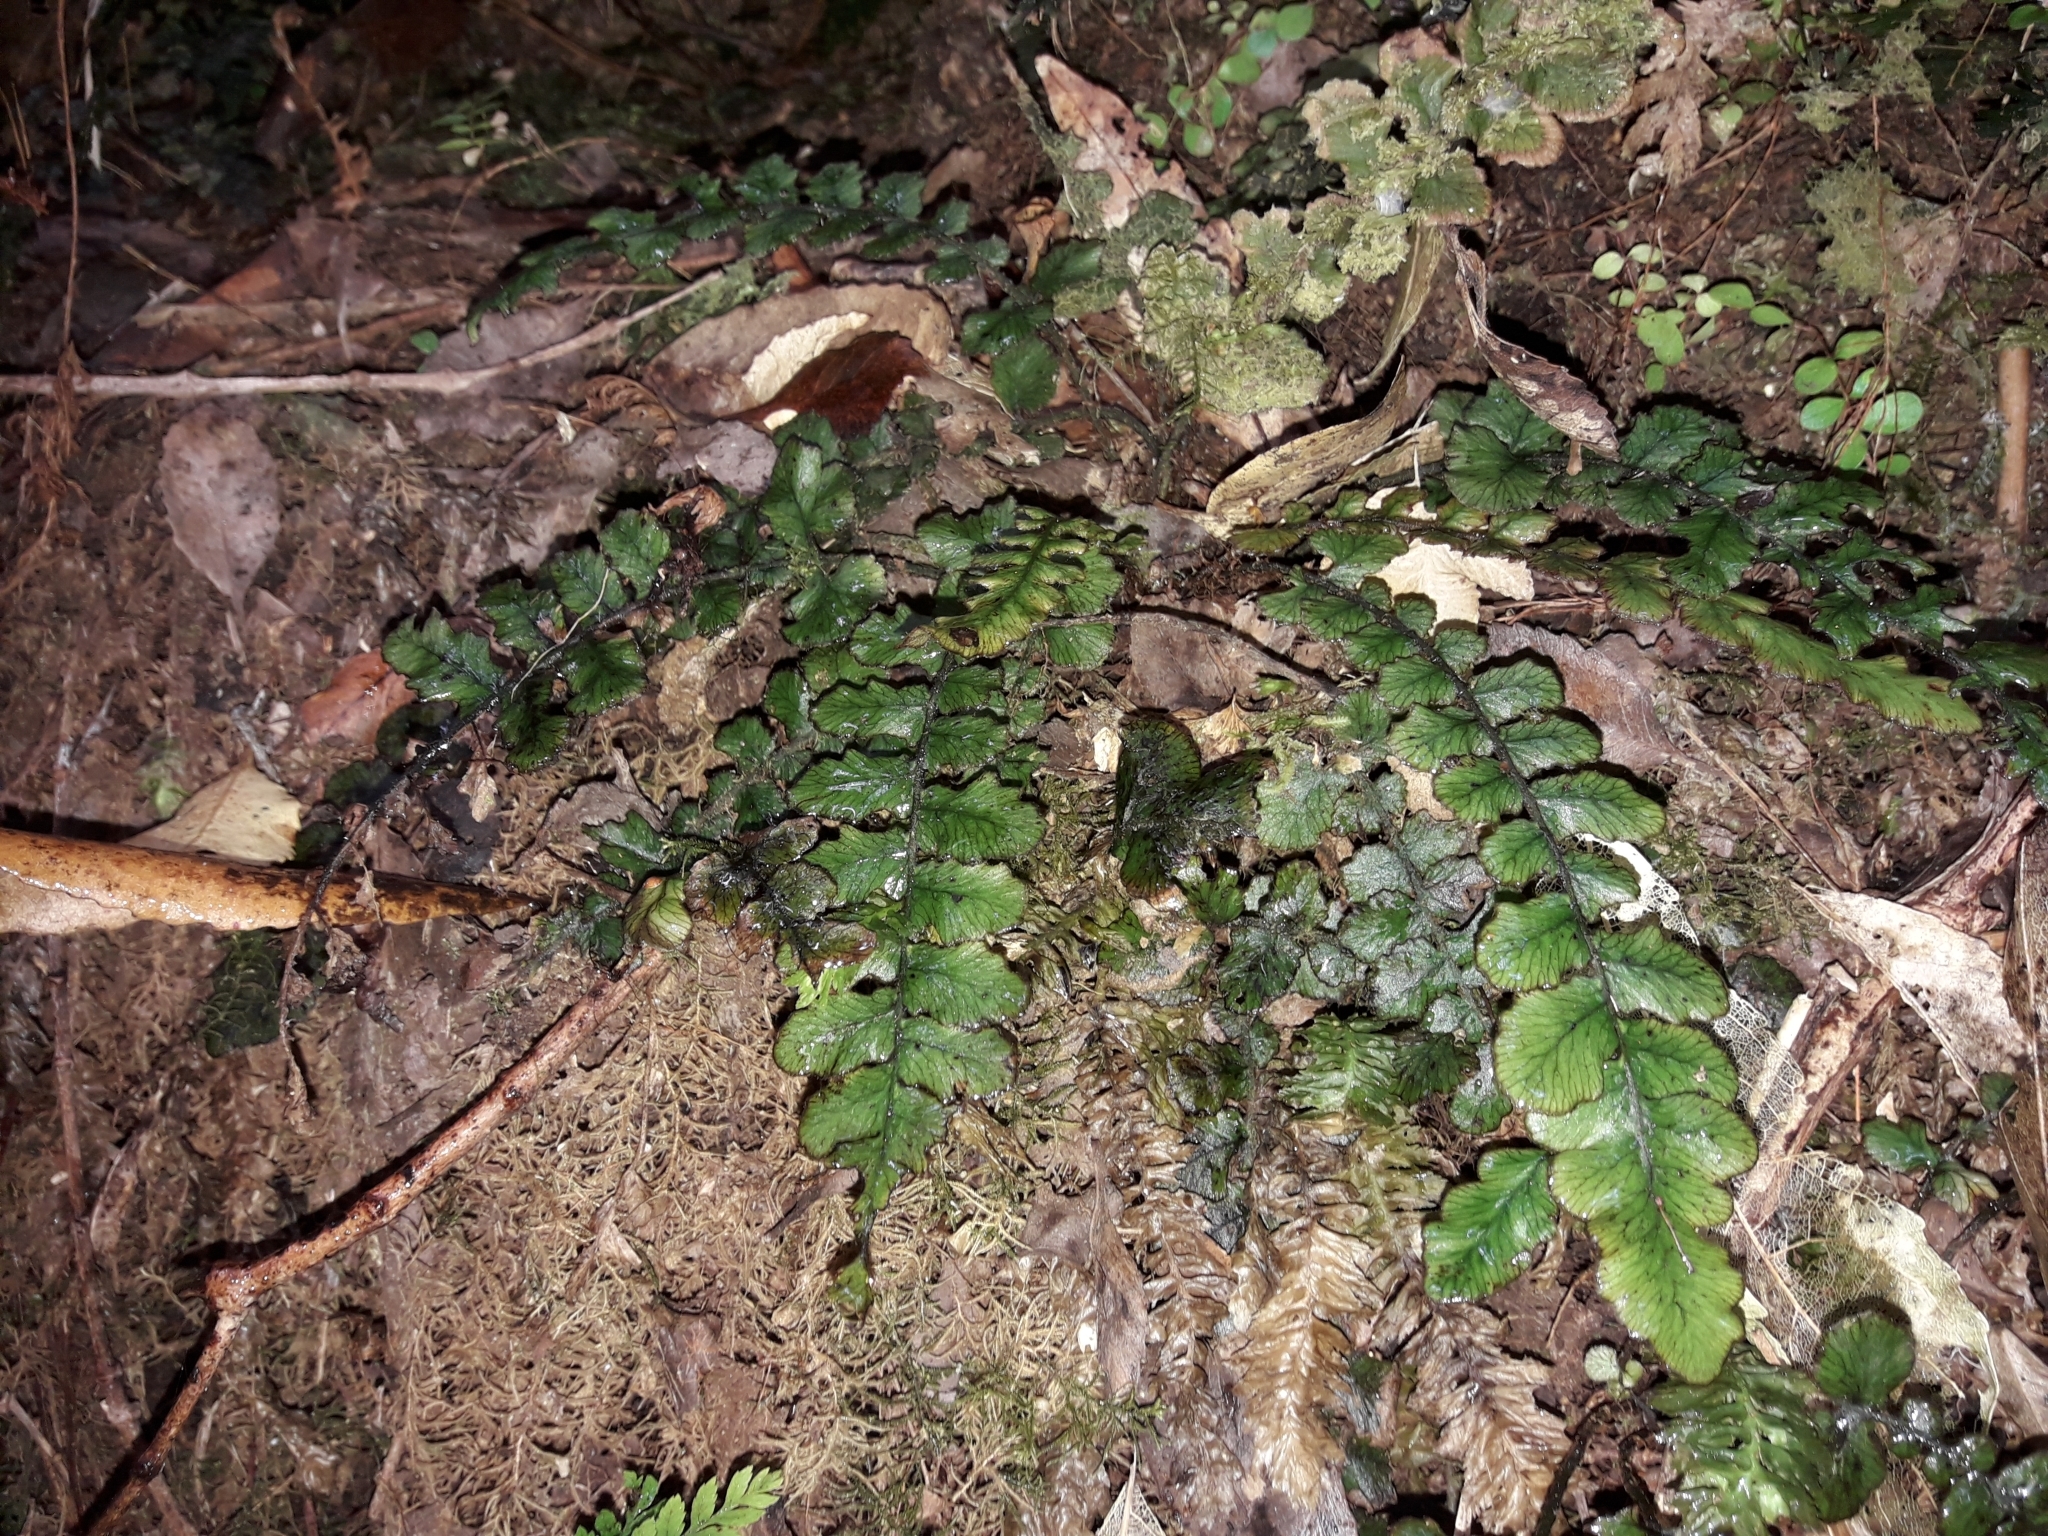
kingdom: Plantae
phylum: Tracheophyta
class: Polypodiopsida
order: Polypodiales
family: Blechnaceae
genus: Cranfillia
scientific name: Cranfillia nigra
